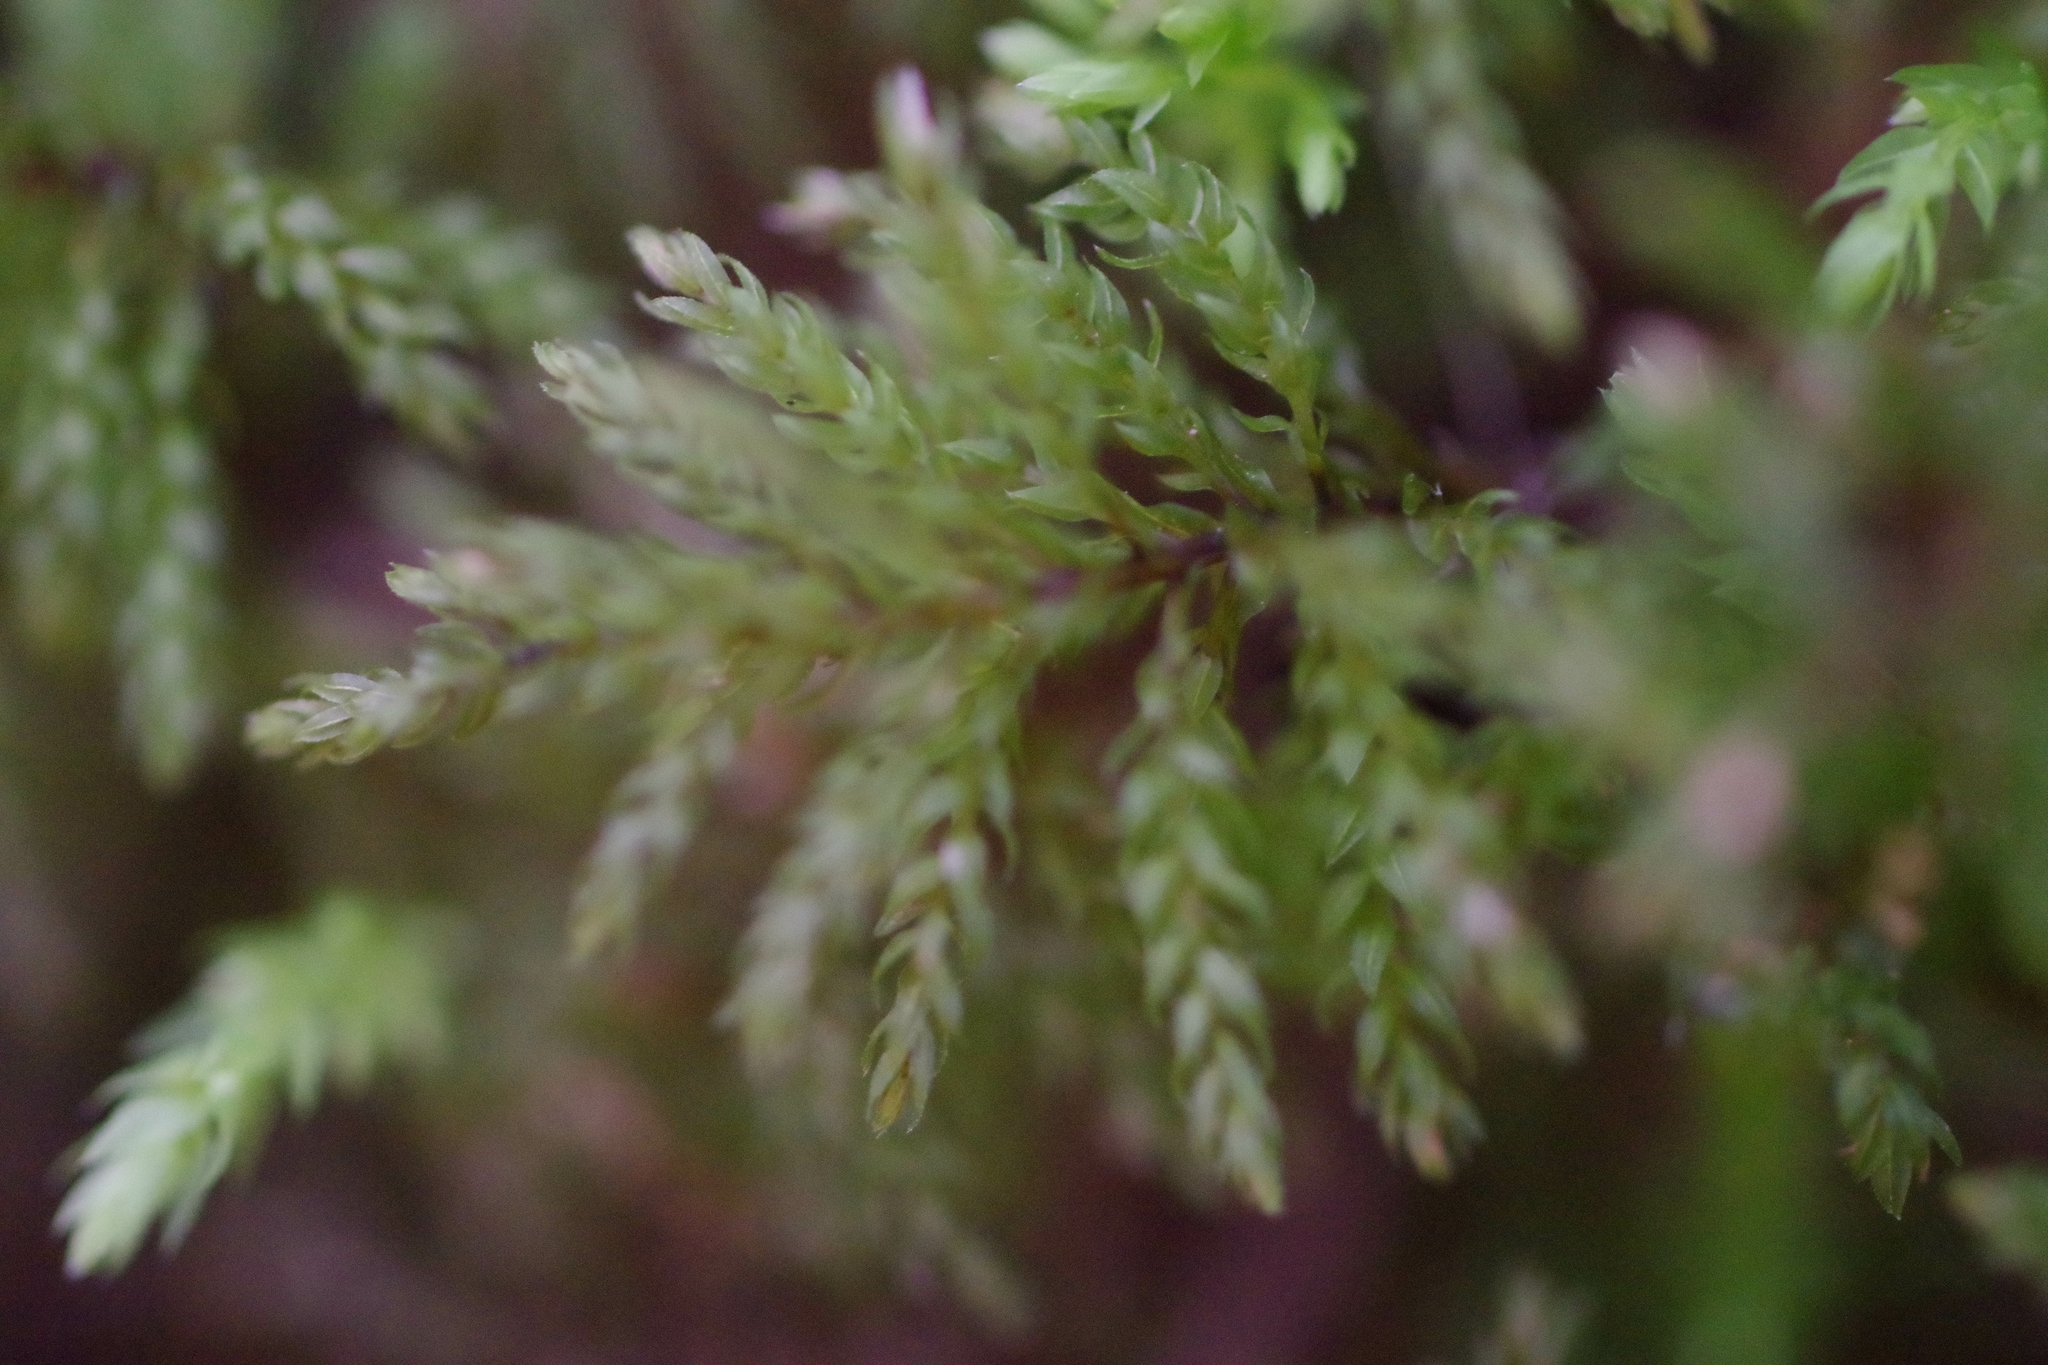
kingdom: Plantae
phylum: Bryophyta
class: Bryopsida
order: Bryales
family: Mniaceae
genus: Leucolepis
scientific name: Leucolepis acanthoneura
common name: Leucolepis umbrella moss
